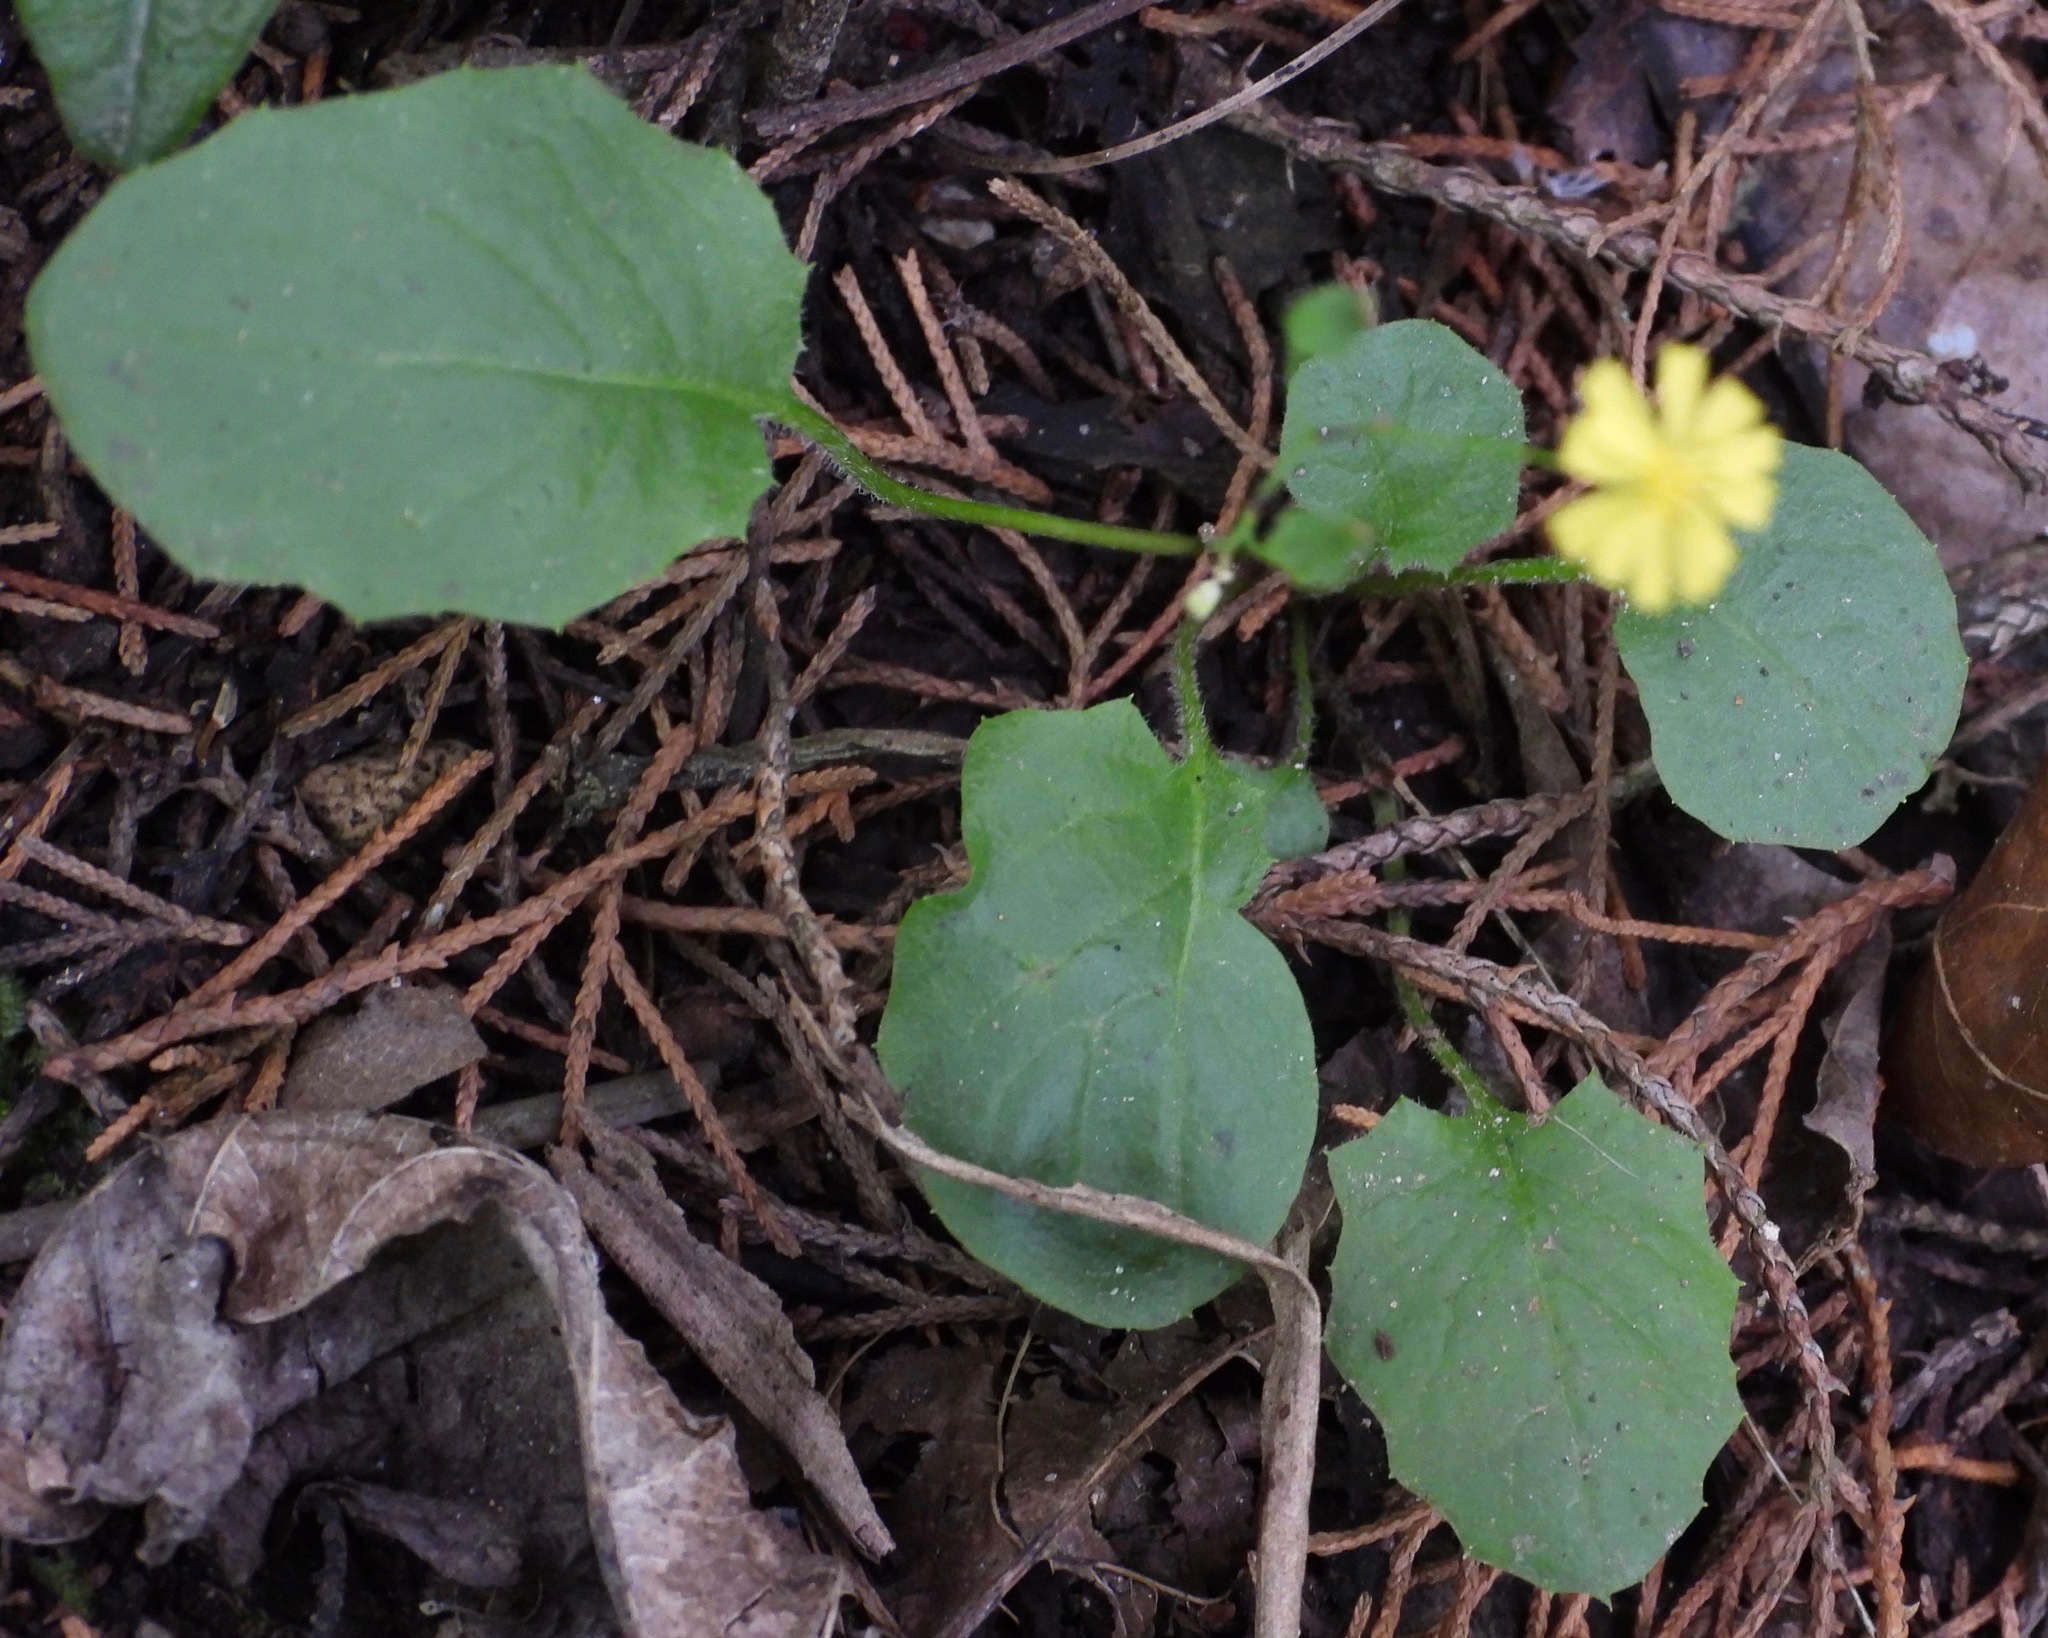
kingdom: Plantae
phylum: Tracheophyta
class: Magnoliopsida
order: Asterales
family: Asteraceae
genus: Youngia
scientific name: Youngia japonica
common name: Oriental false hawksbeard
